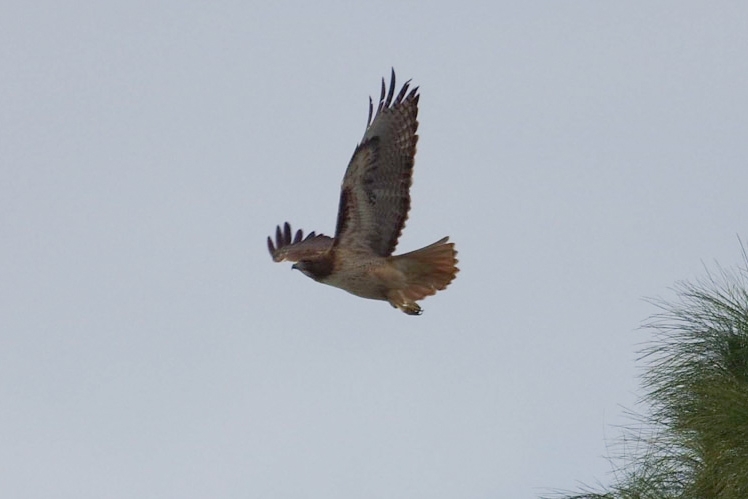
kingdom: Animalia
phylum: Chordata
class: Aves
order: Accipitriformes
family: Accipitridae
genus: Buteo
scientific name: Buteo jamaicensis
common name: Red-tailed hawk
